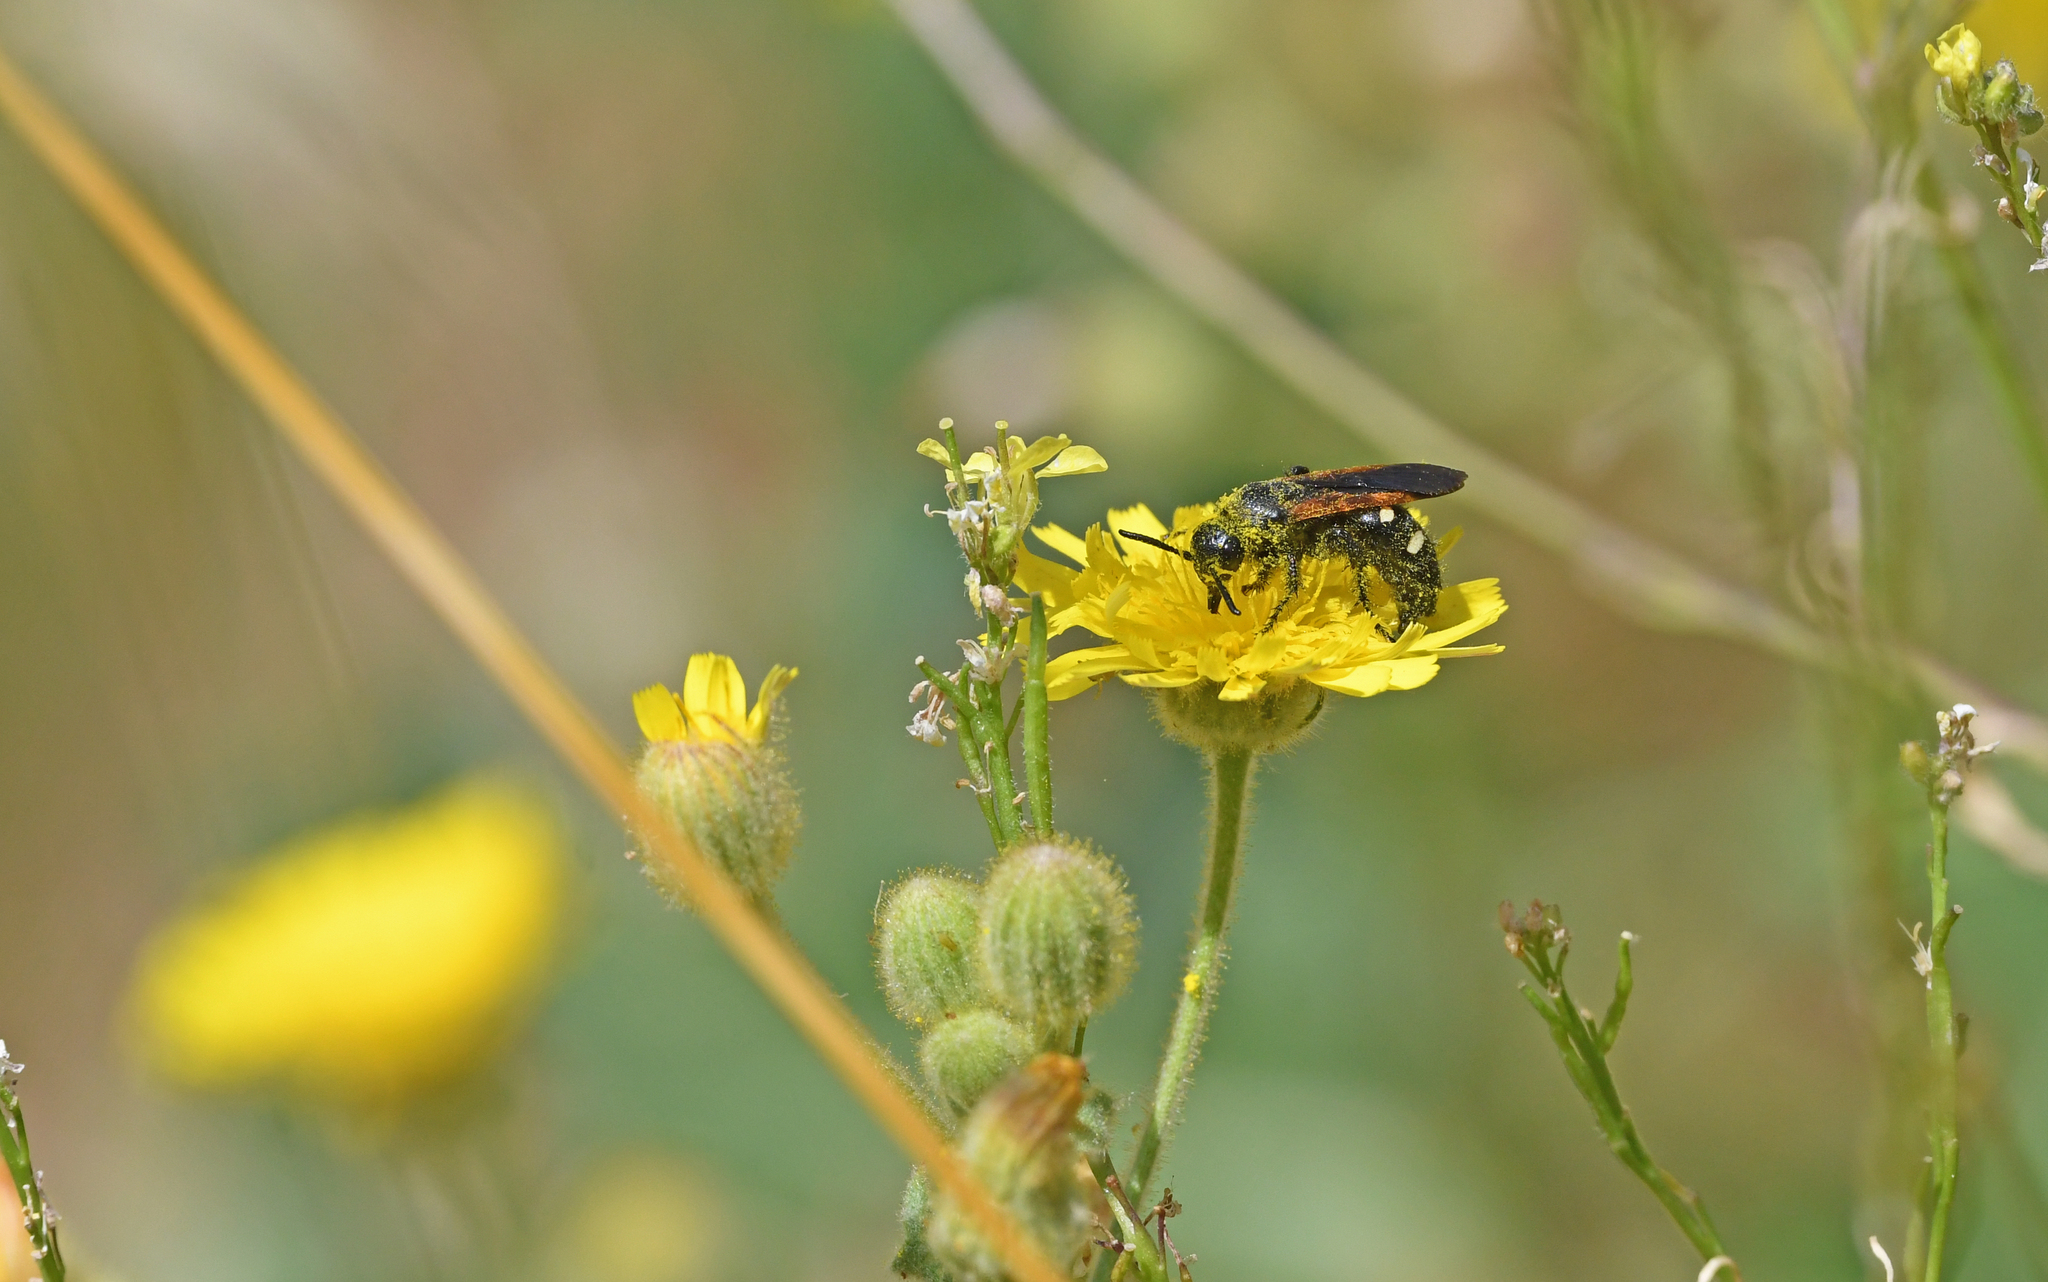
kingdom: Animalia
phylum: Arthropoda
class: Insecta
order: Hymenoptera
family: Vespidae
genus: Vespa
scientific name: Vespa sexmaculata
